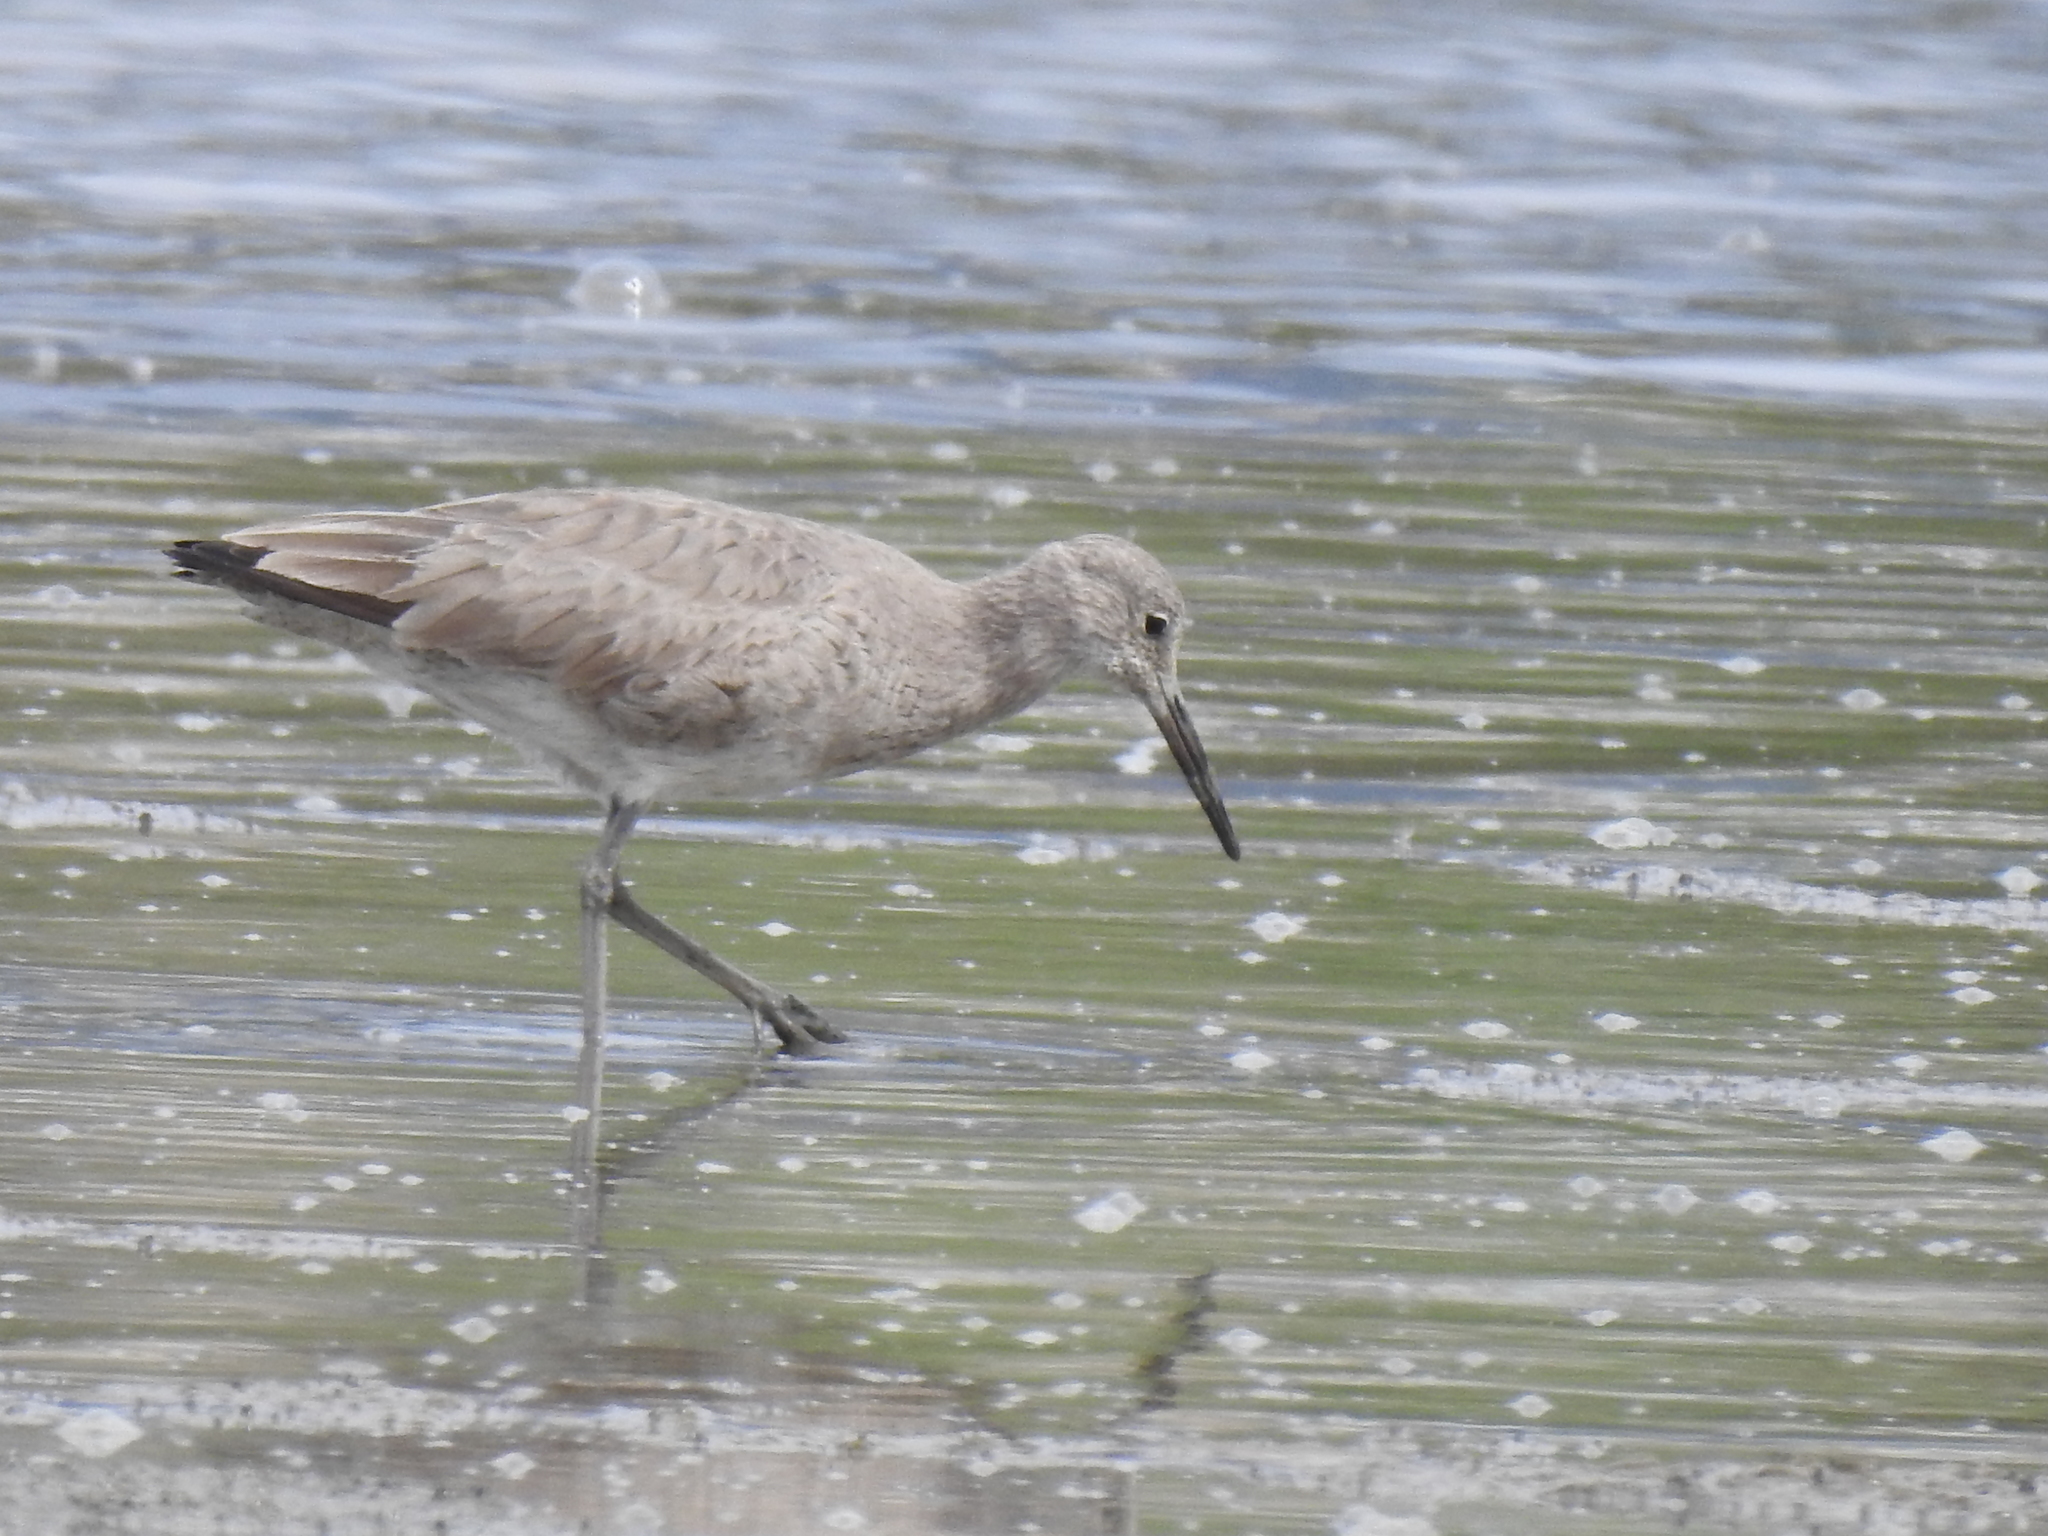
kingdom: Animalia
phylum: Chordata
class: Aves
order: Charadriiformes
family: Scolopacidae
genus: Tringa
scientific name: Tringa semipalmata
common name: Willet
